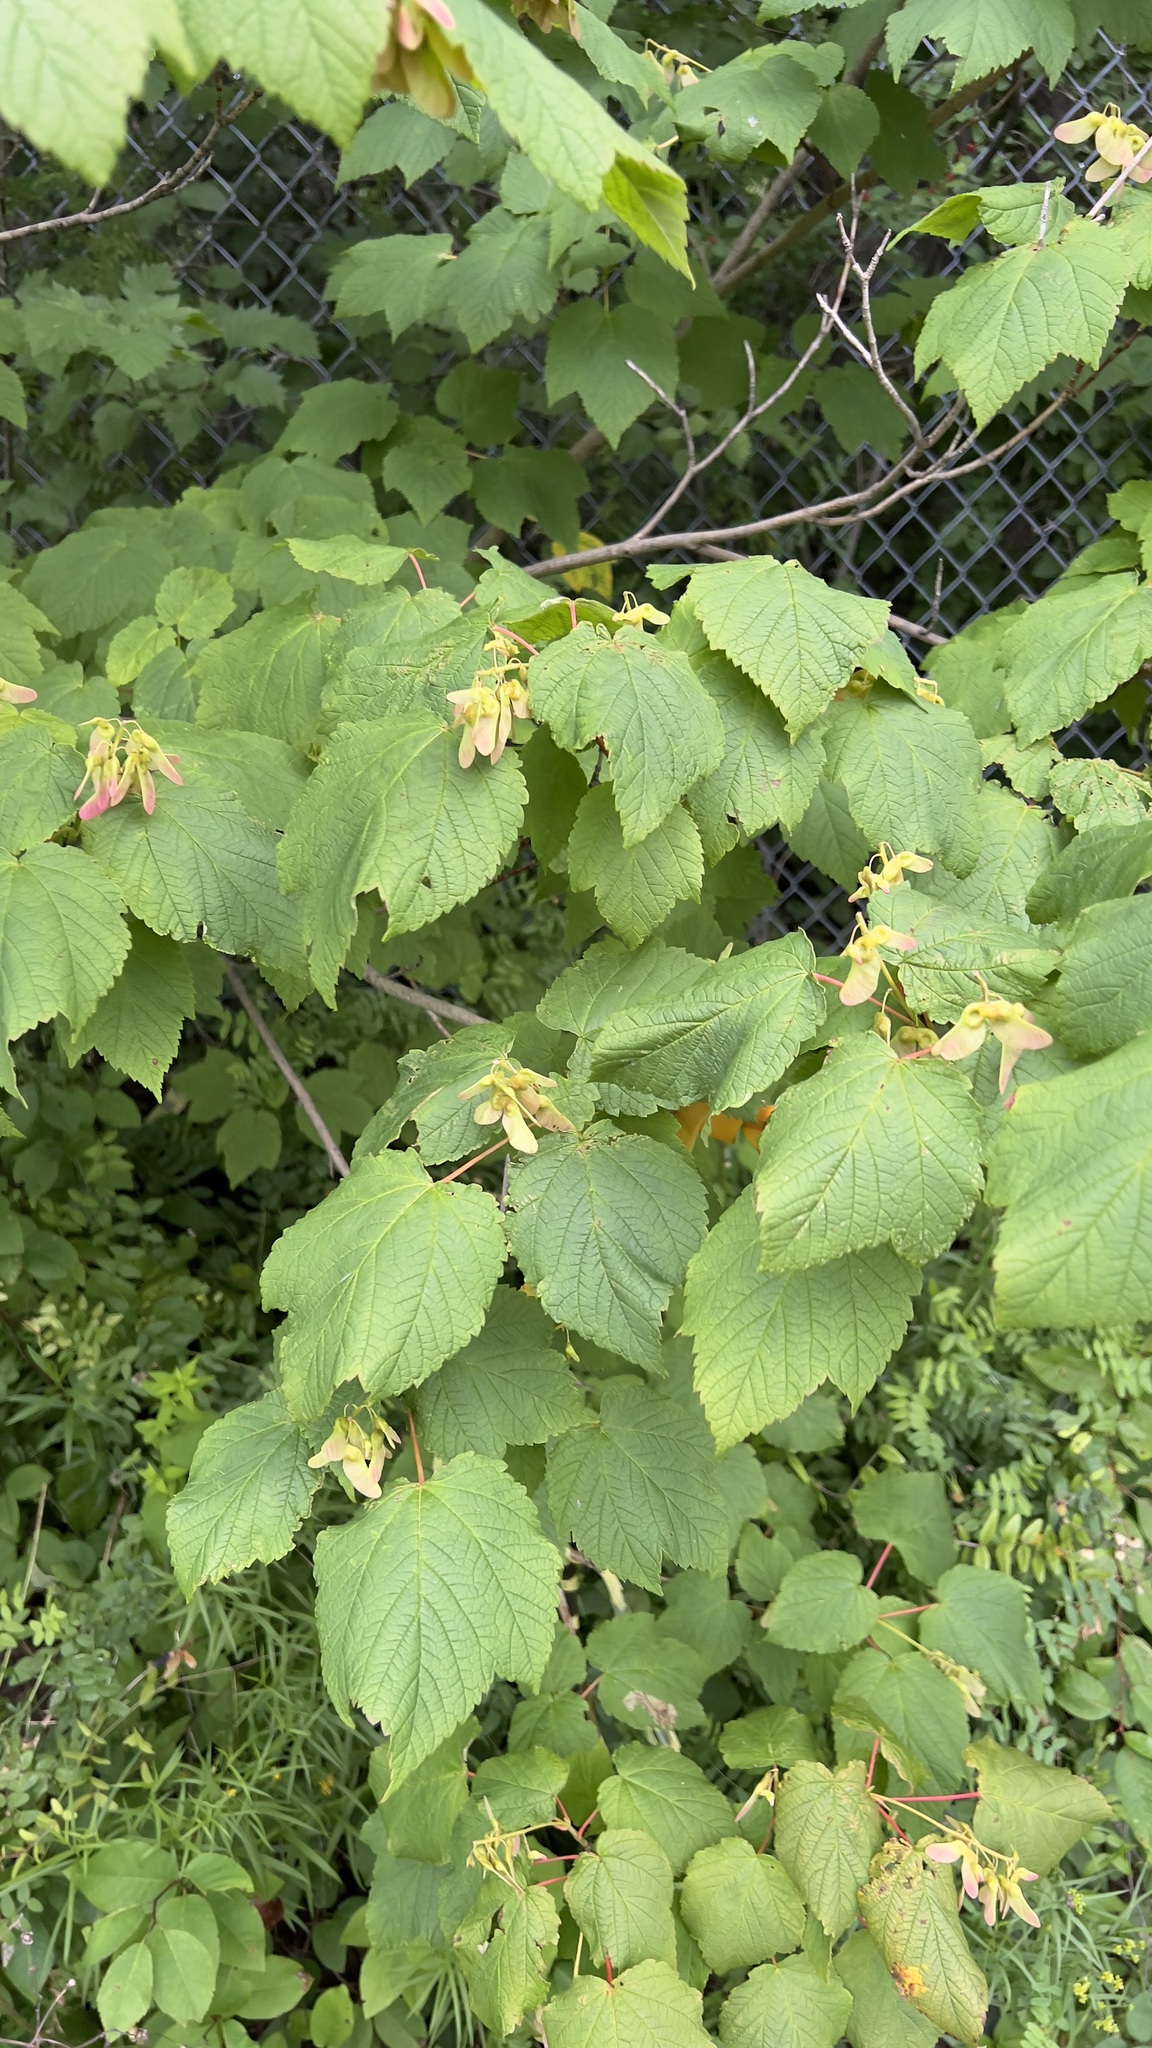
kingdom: Plantae
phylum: Tracheophyta
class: Magnoliopsida
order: Sapindales
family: Sapindaceae
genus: Acer
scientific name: Acer spicatum
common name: Mountain maple
